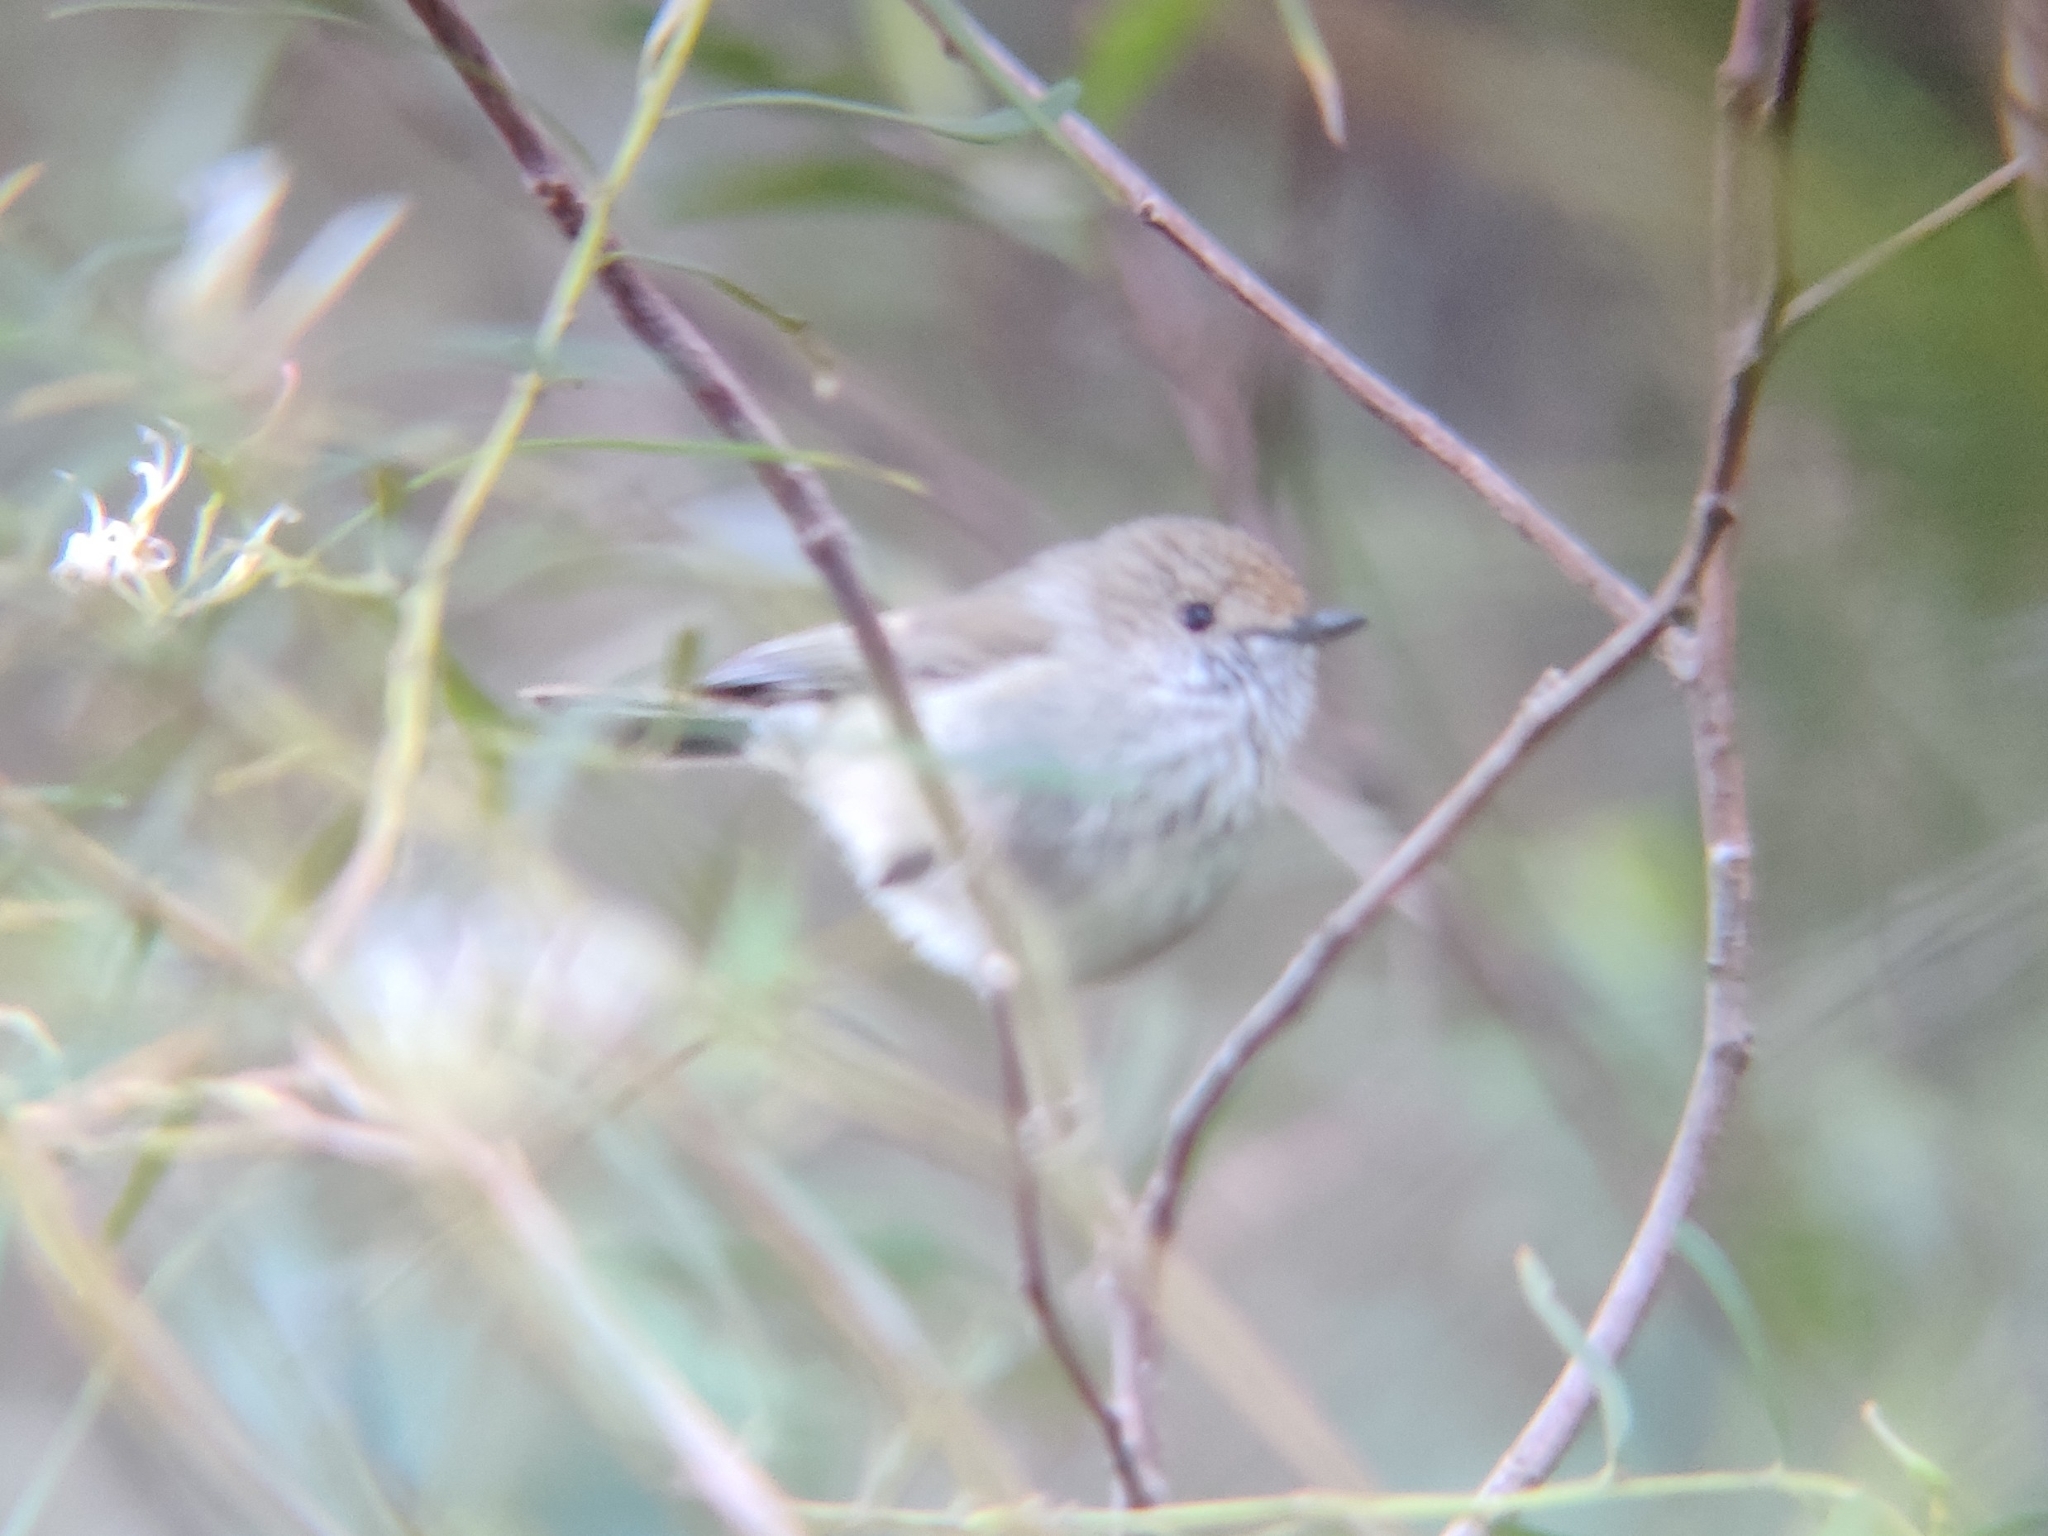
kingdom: Animalia
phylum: Chordata
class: Aves
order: Passeriformes
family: Acanthizidae
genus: Acanthiza
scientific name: Acanthiza pusilla
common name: Brown thornbill
